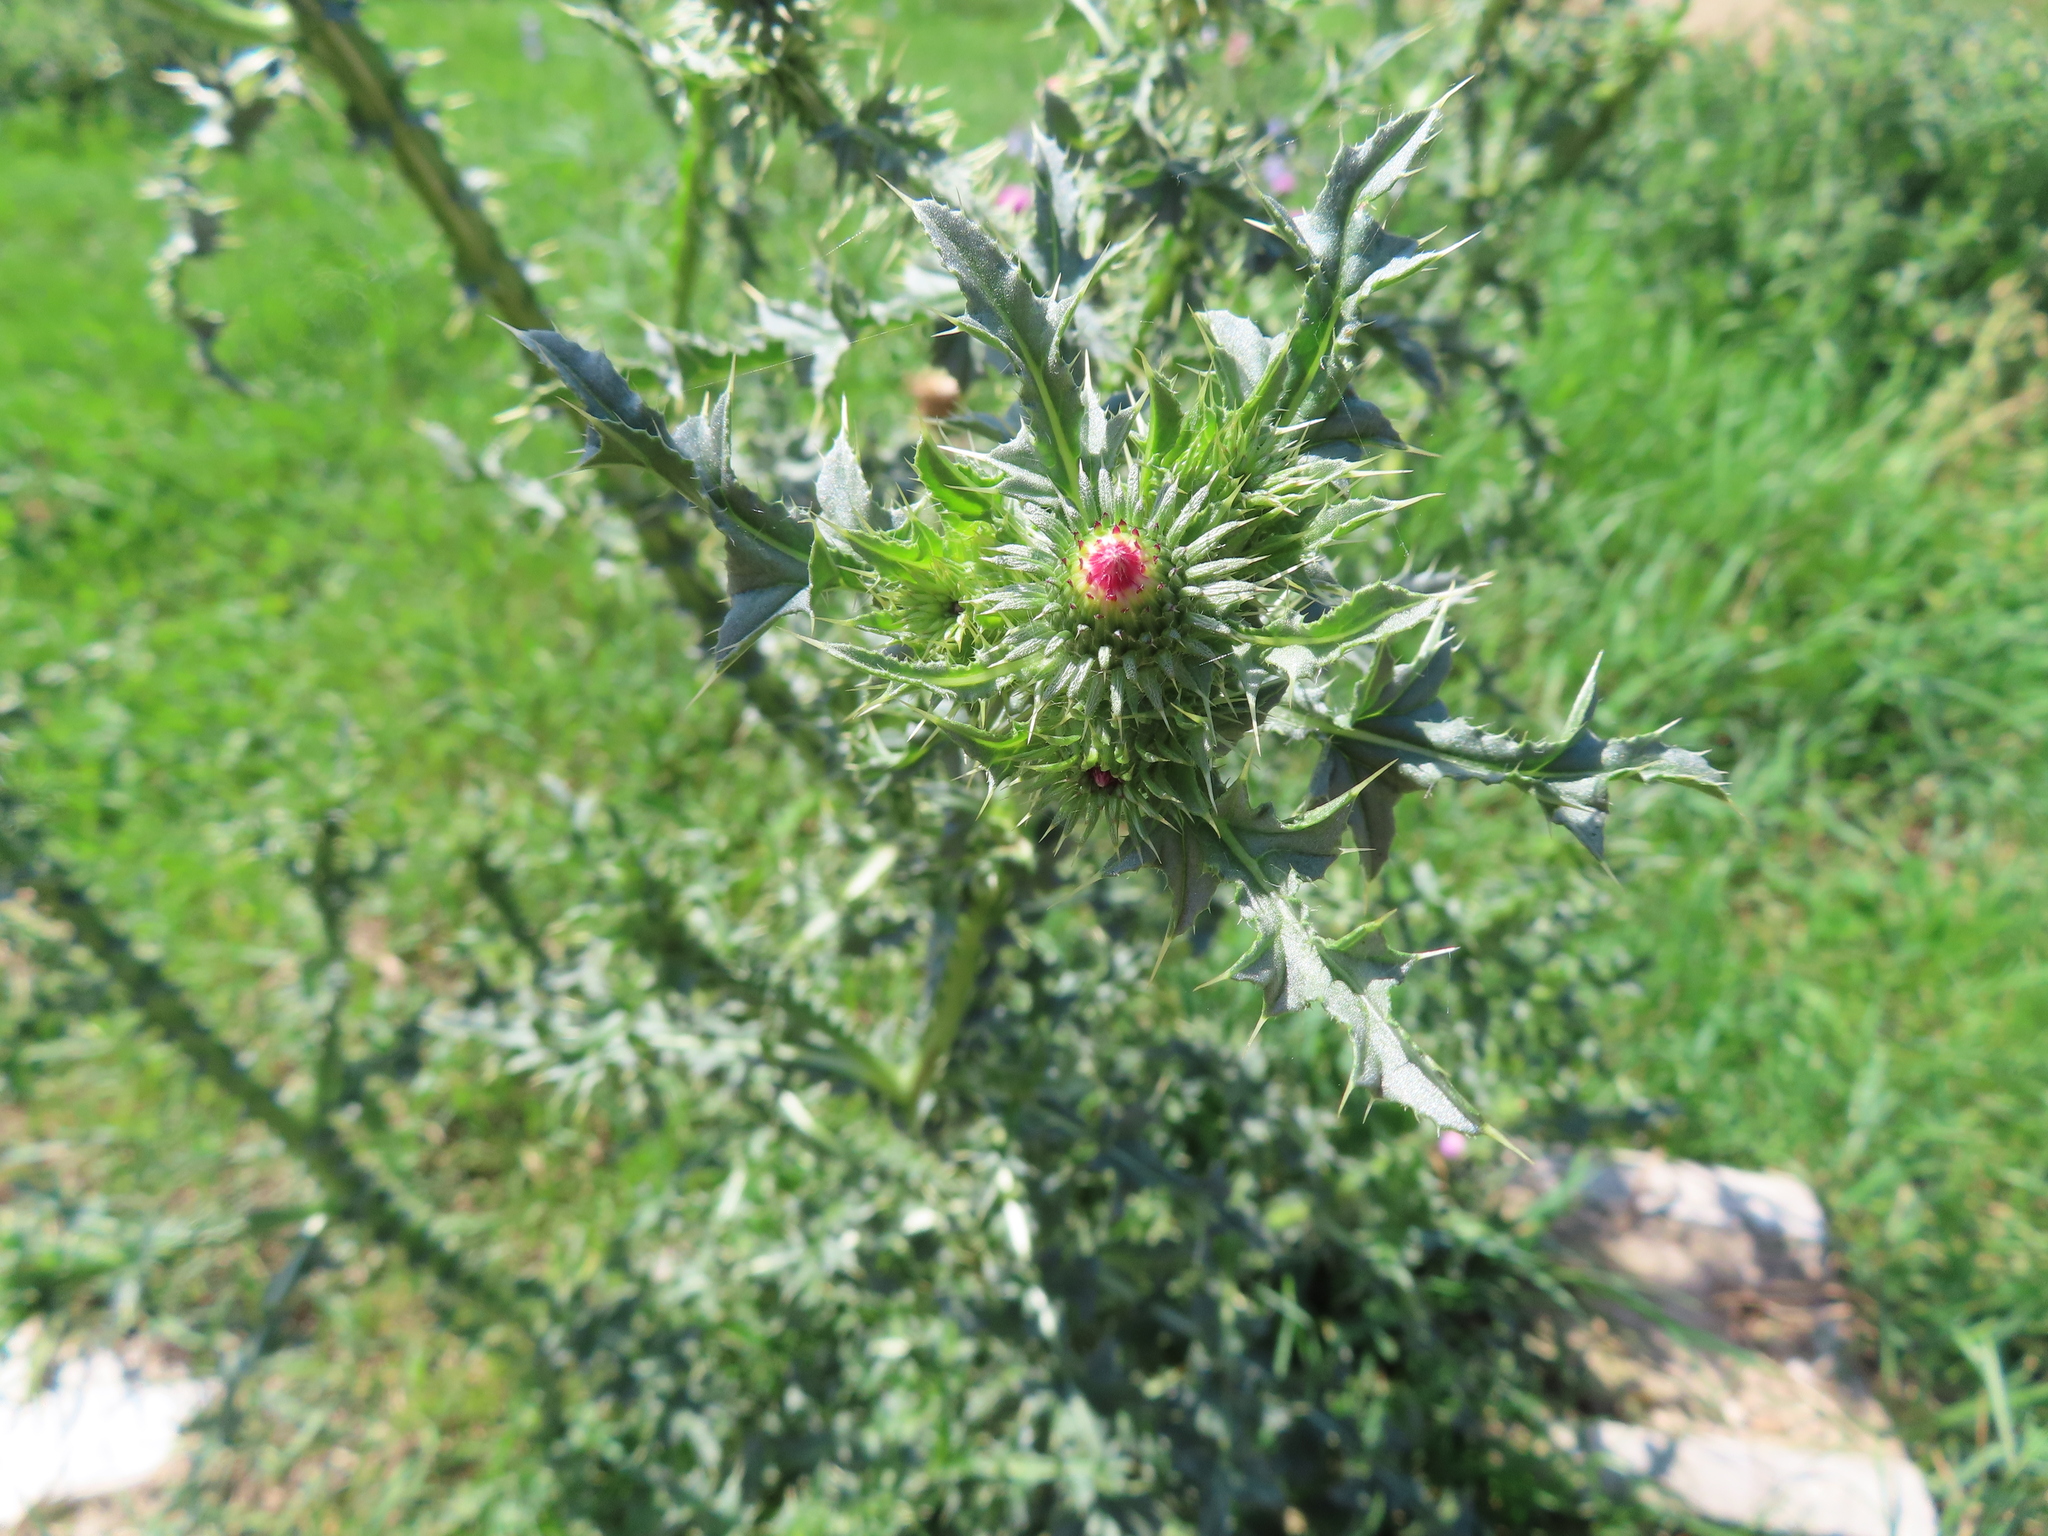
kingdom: Plantae
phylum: Tracheophyta
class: Magnoliopsida
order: Asterales
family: Asteraceae
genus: Carduus
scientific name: Carduus acanthoides
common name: Plumeless thistle
